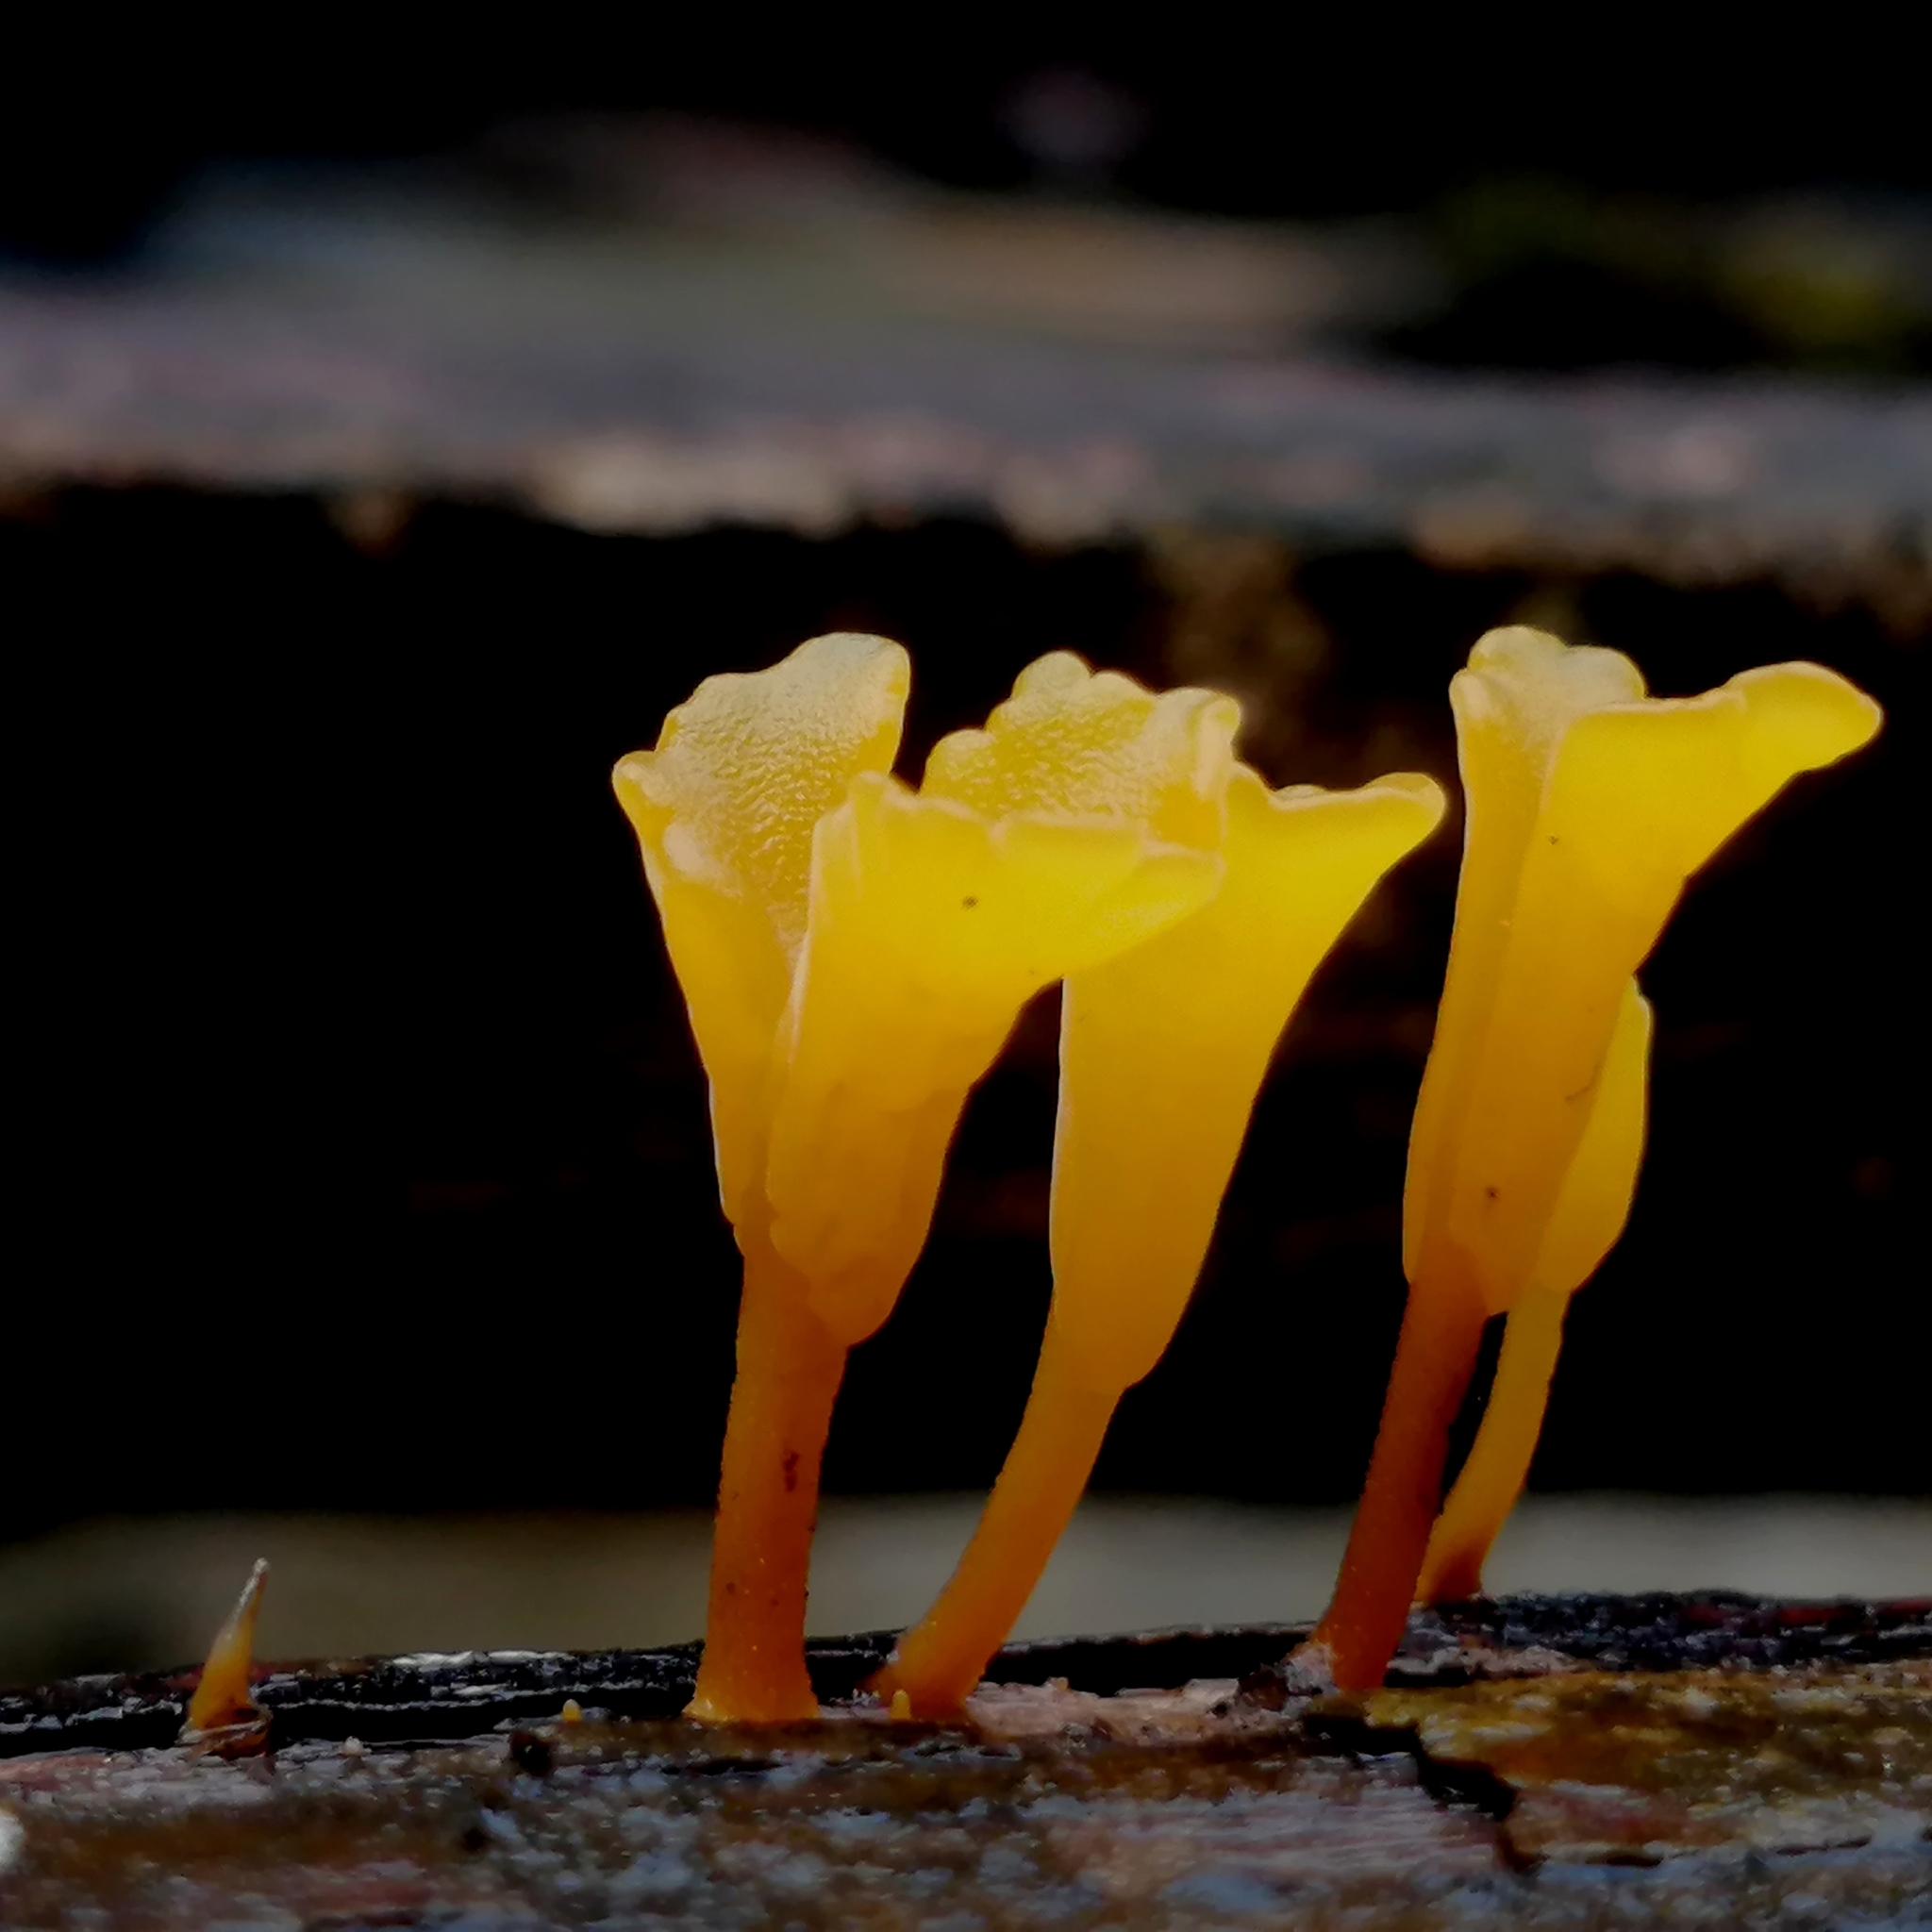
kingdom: Fungi
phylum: Basidiomycota
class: Dacrymycetes
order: Dacrymycetales
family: Dacrymycetaceae
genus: Dacrymyces
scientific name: Dacrymyces spathularius
